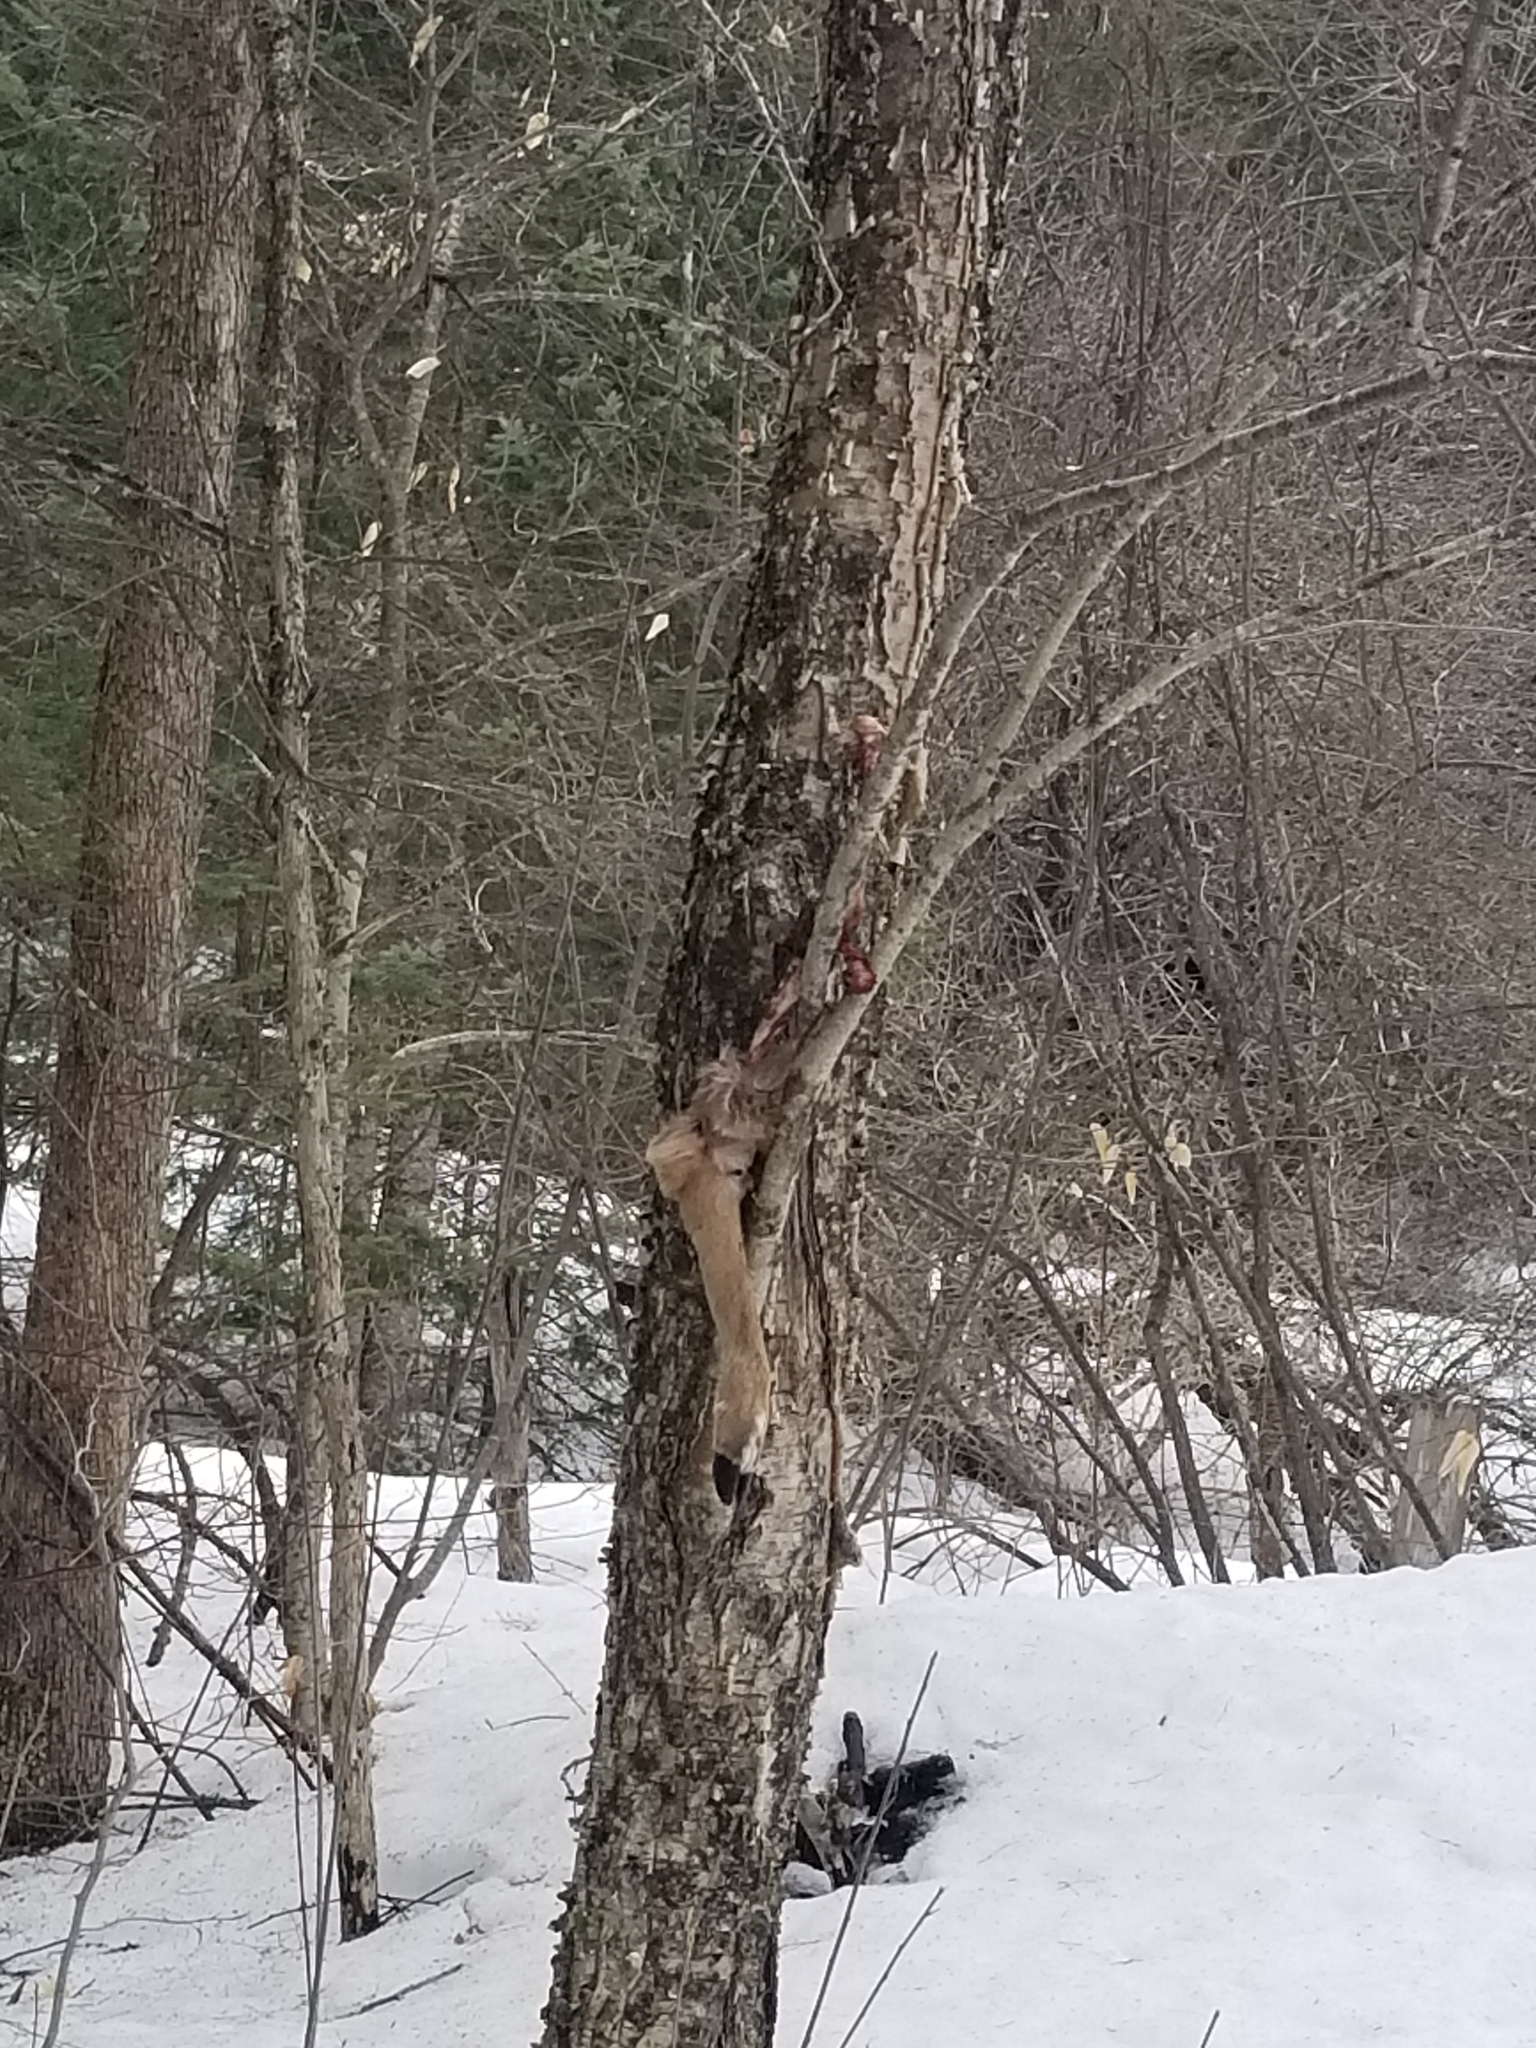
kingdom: Animalia
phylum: Chordata
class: Mammalia
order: Artiodactyla
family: Cervidae
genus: Odocoileus
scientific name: Odocoileus virginianus
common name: White-tailed deer
